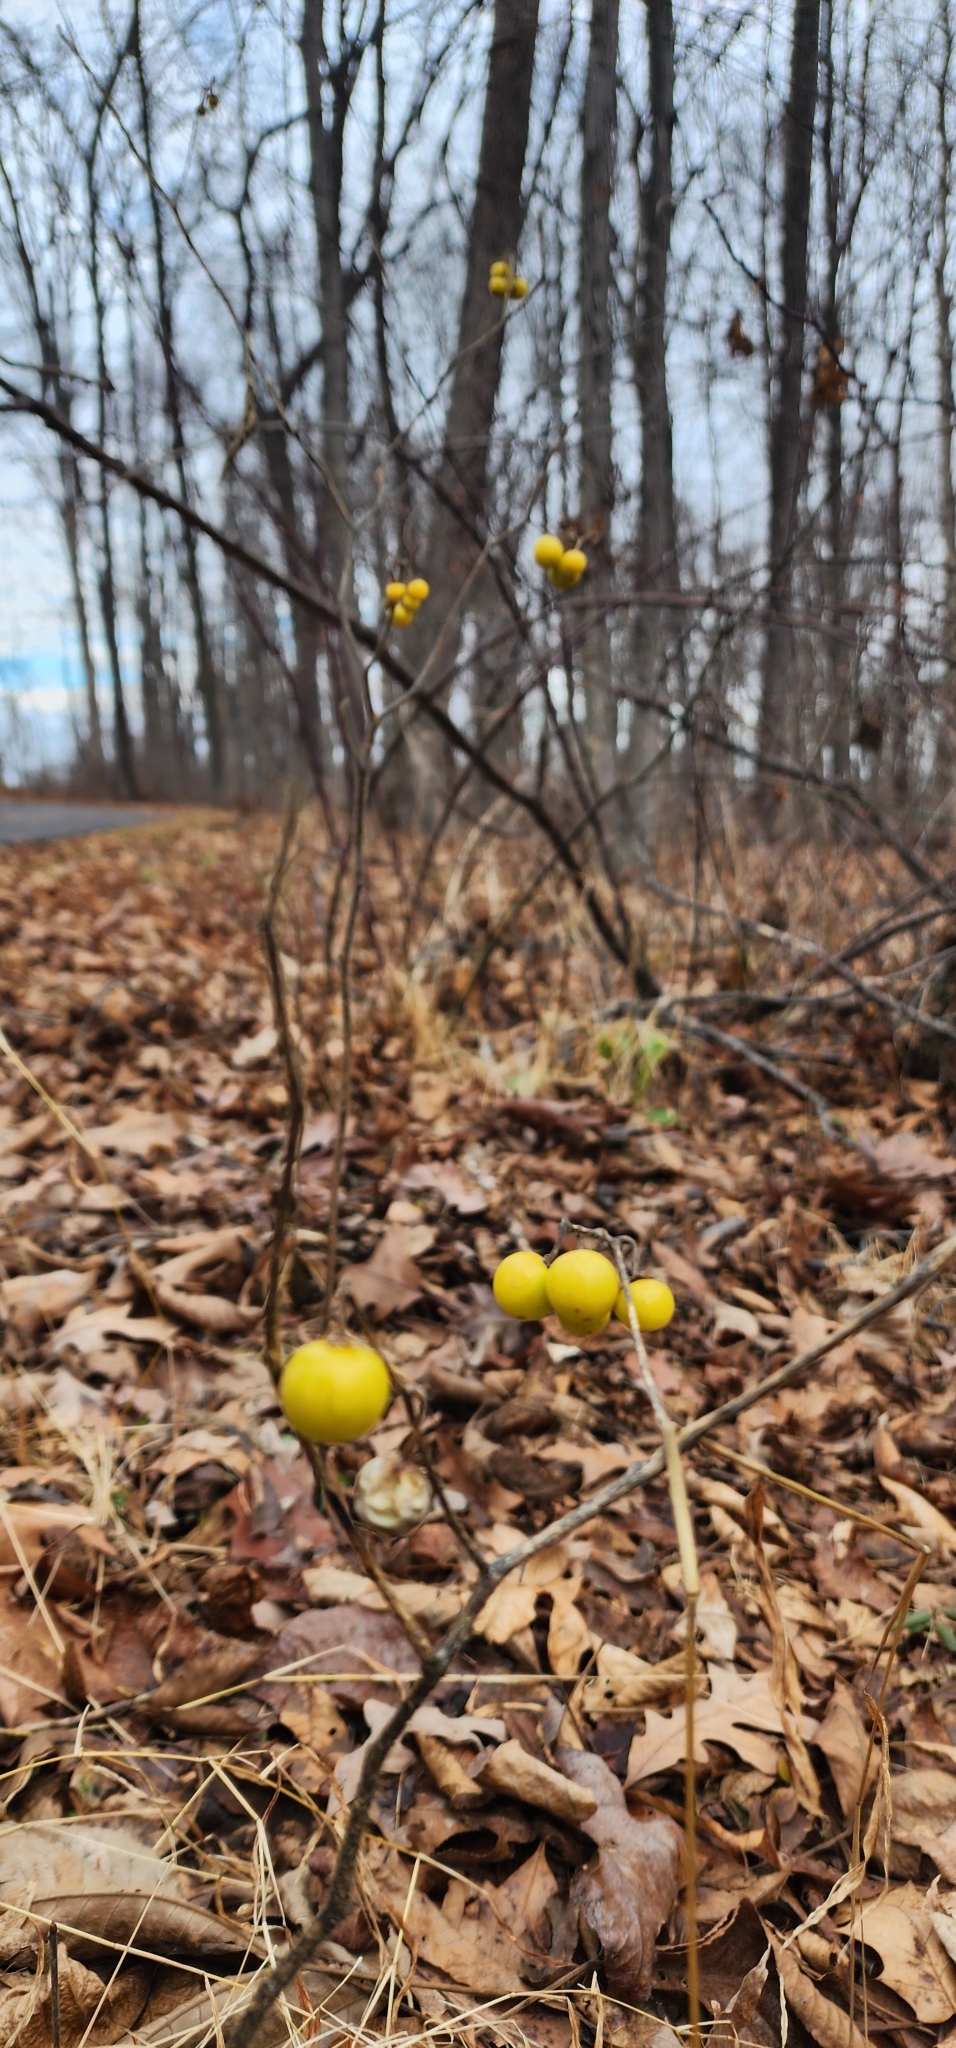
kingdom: Plantae
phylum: Tracheophyta
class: Magnoliopsida
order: Solanales
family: Solanaceae
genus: Solanum
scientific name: Solanum carolinense
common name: Horse-nettle
